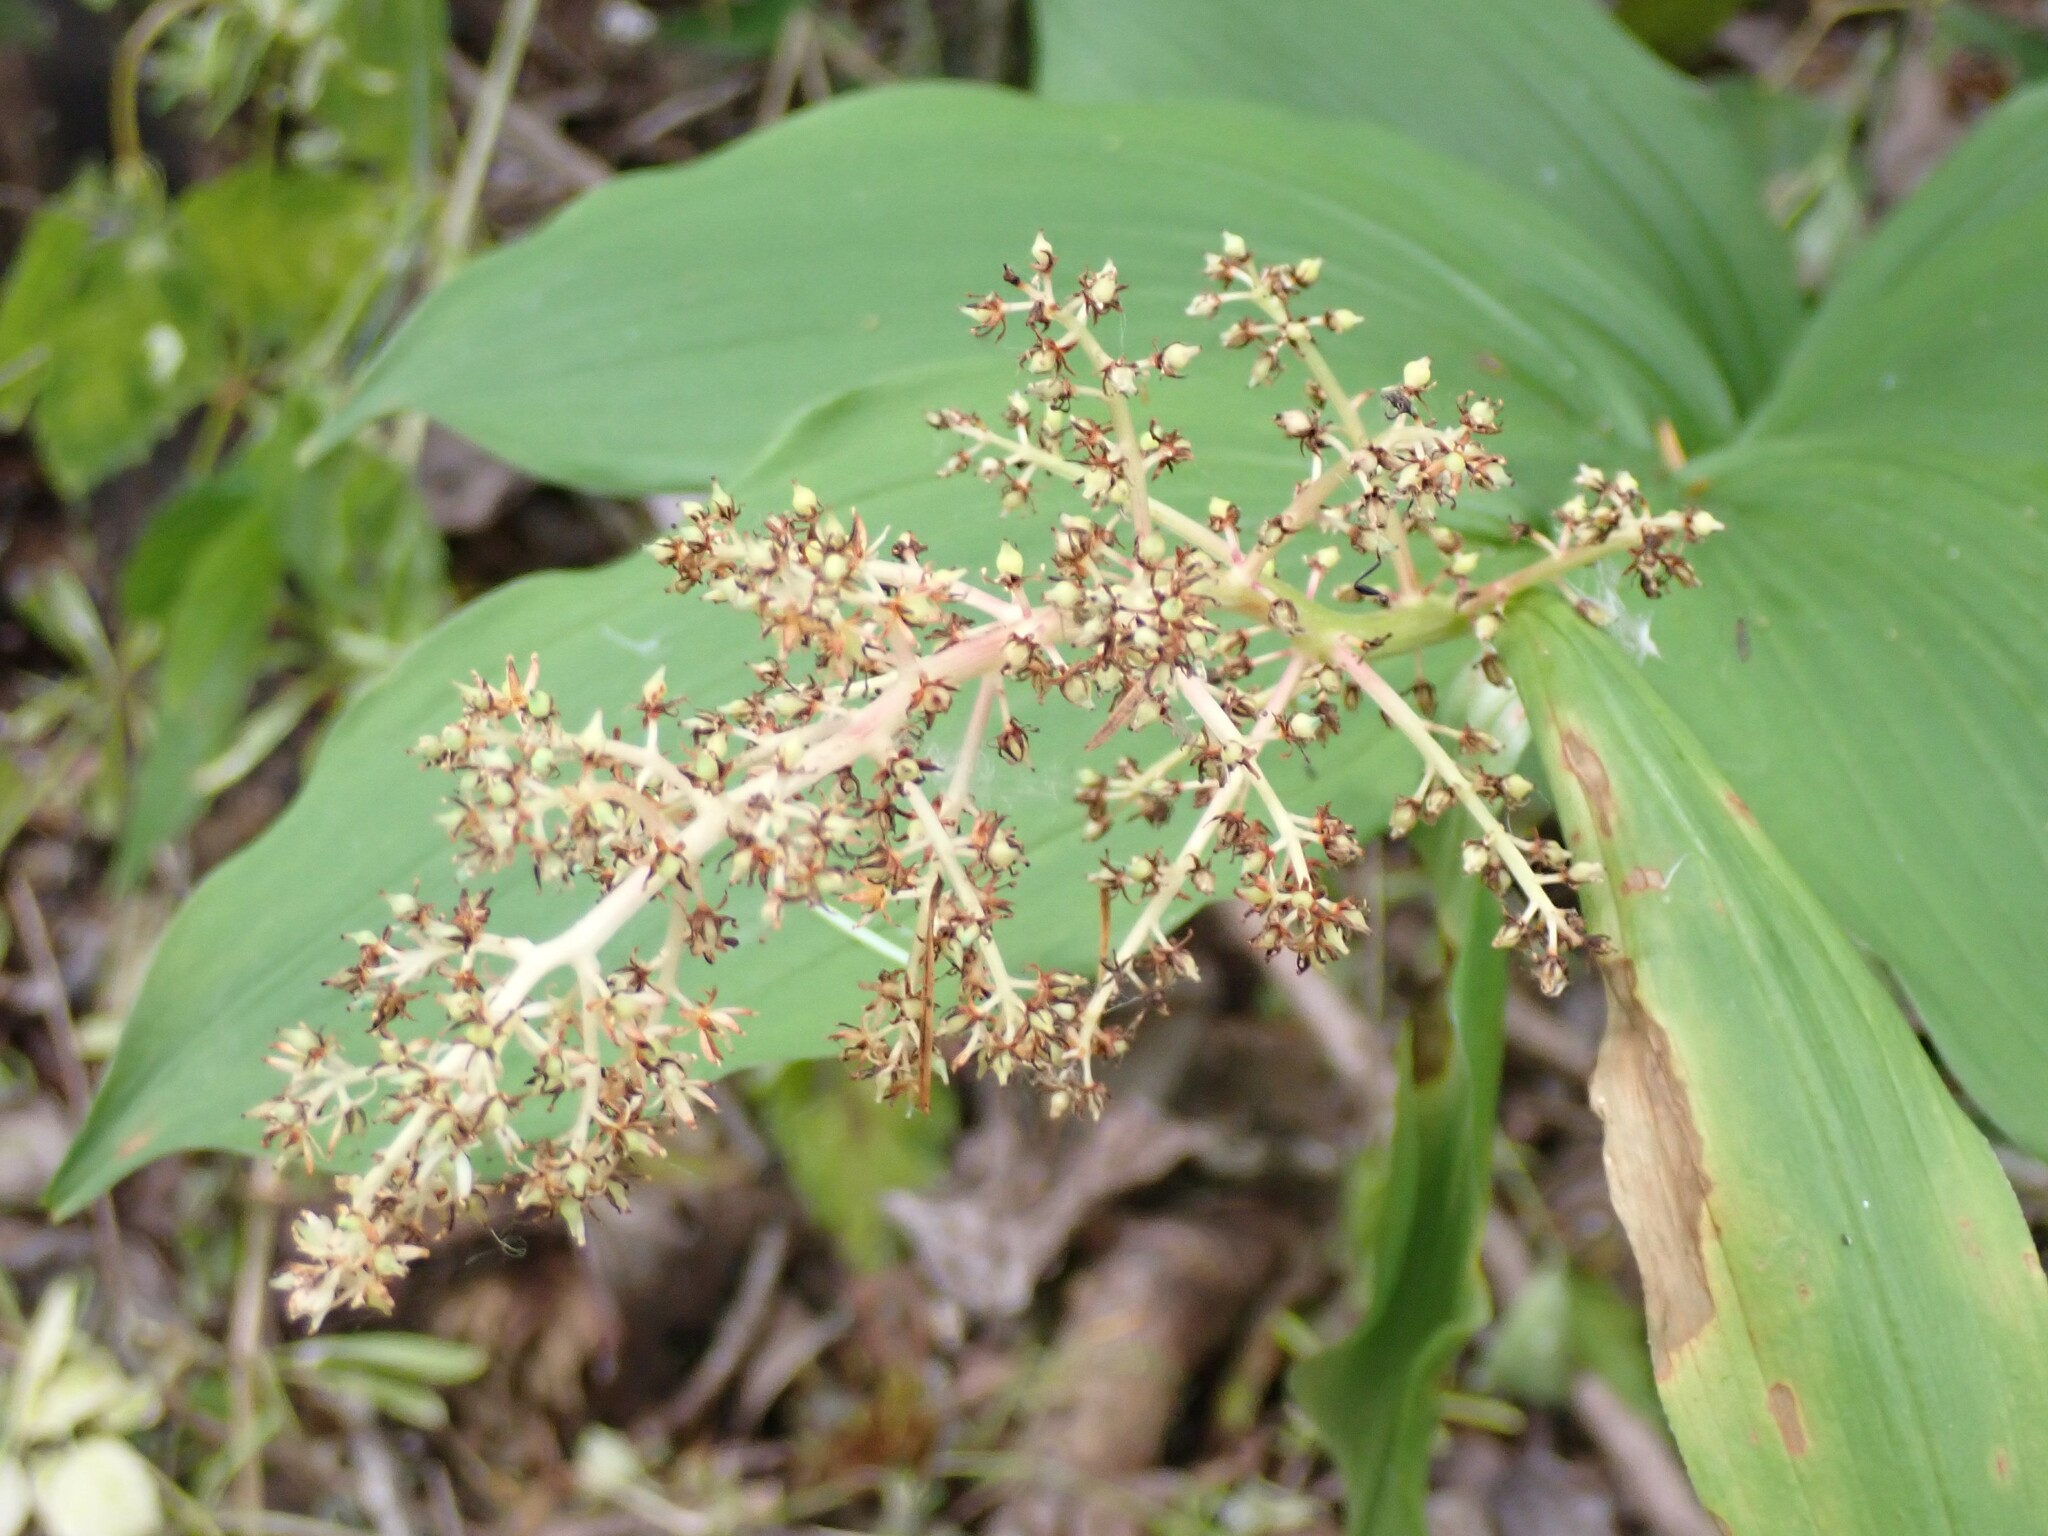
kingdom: Plantae
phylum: Tracheophyta
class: Liliopsida
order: Asparagales
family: Asparagaceae
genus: Maianthemum
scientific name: Maianthemum racemosum
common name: False spikenard
